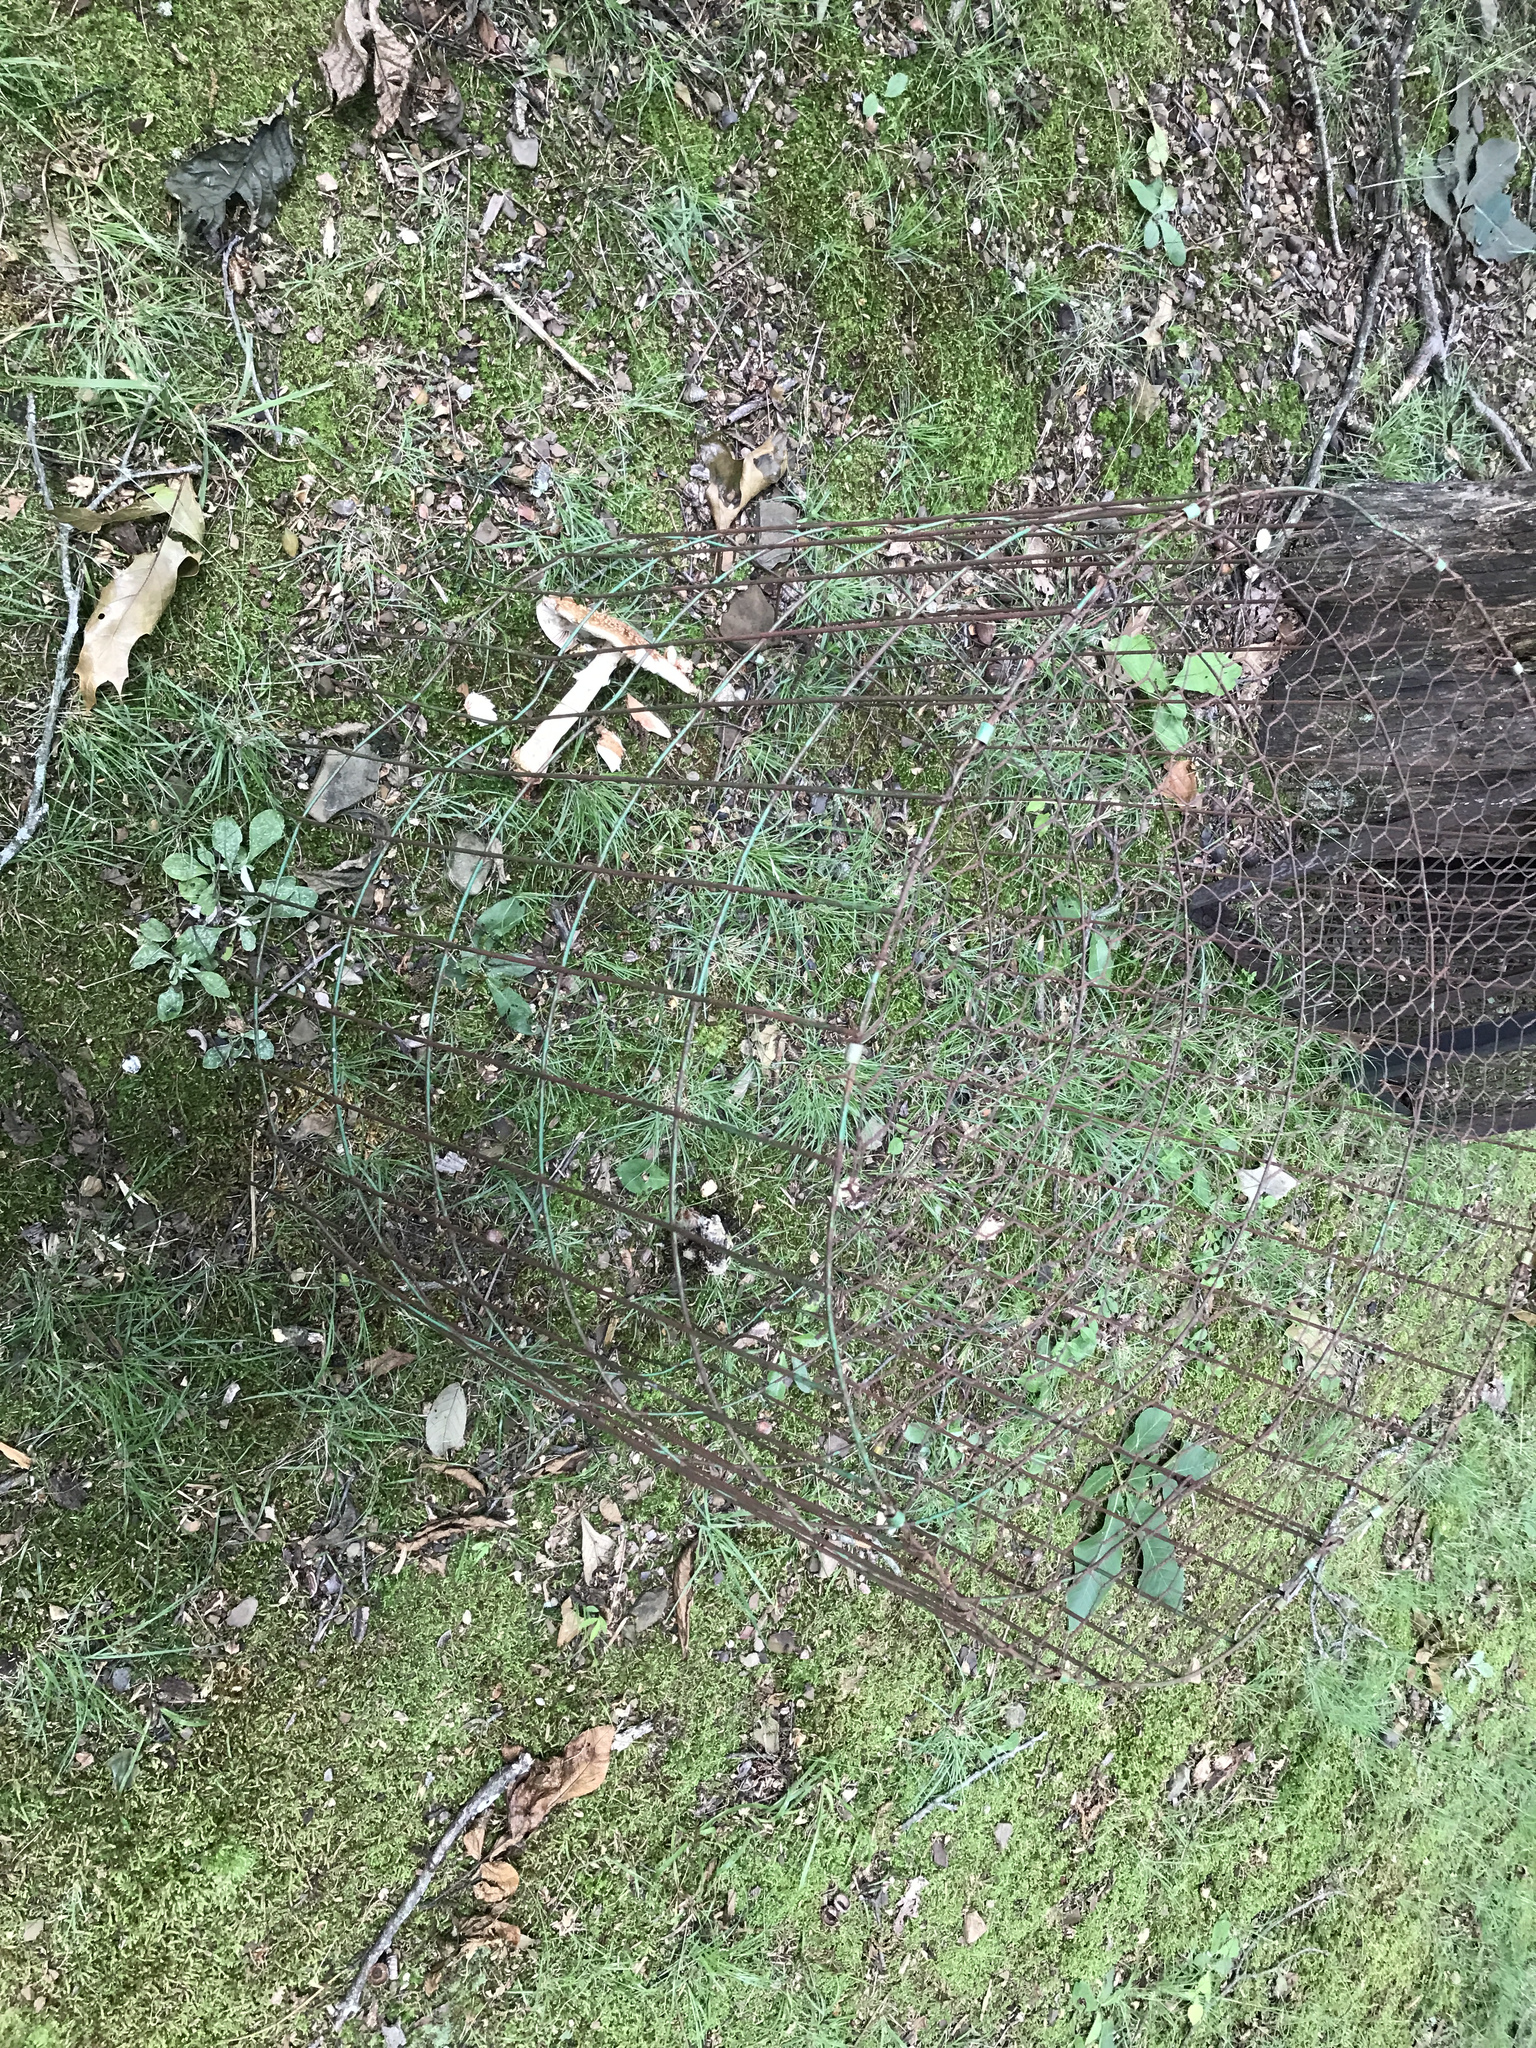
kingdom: Fungi
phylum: Mucoromycota
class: Mucoromycetes
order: Mucorales
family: Rhizopodaceae
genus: Syzygites
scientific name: Syzygites megalocarpus
